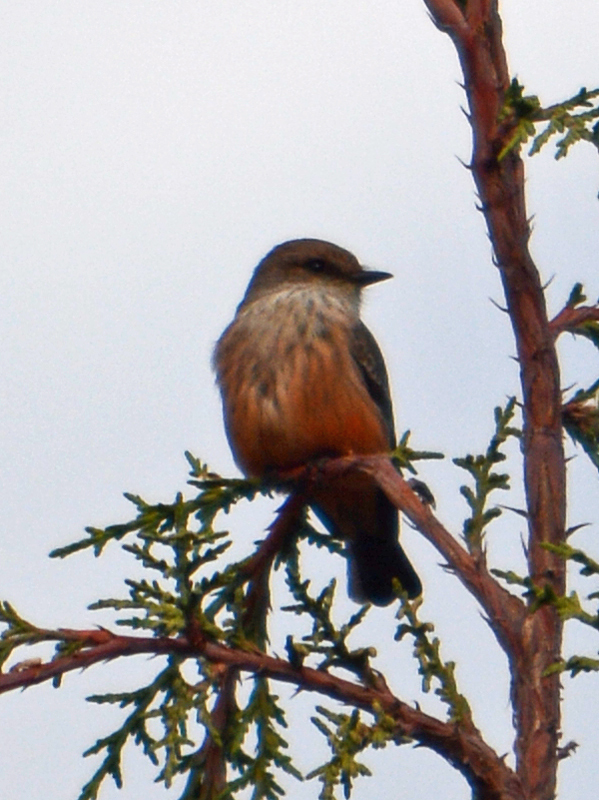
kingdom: Animalia
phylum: Chordata
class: Aves
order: Passeriformes
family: Tyrannidae
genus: Pyrocephalus
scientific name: Pyrocephalus rubinus
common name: Vermilion flycatcher
